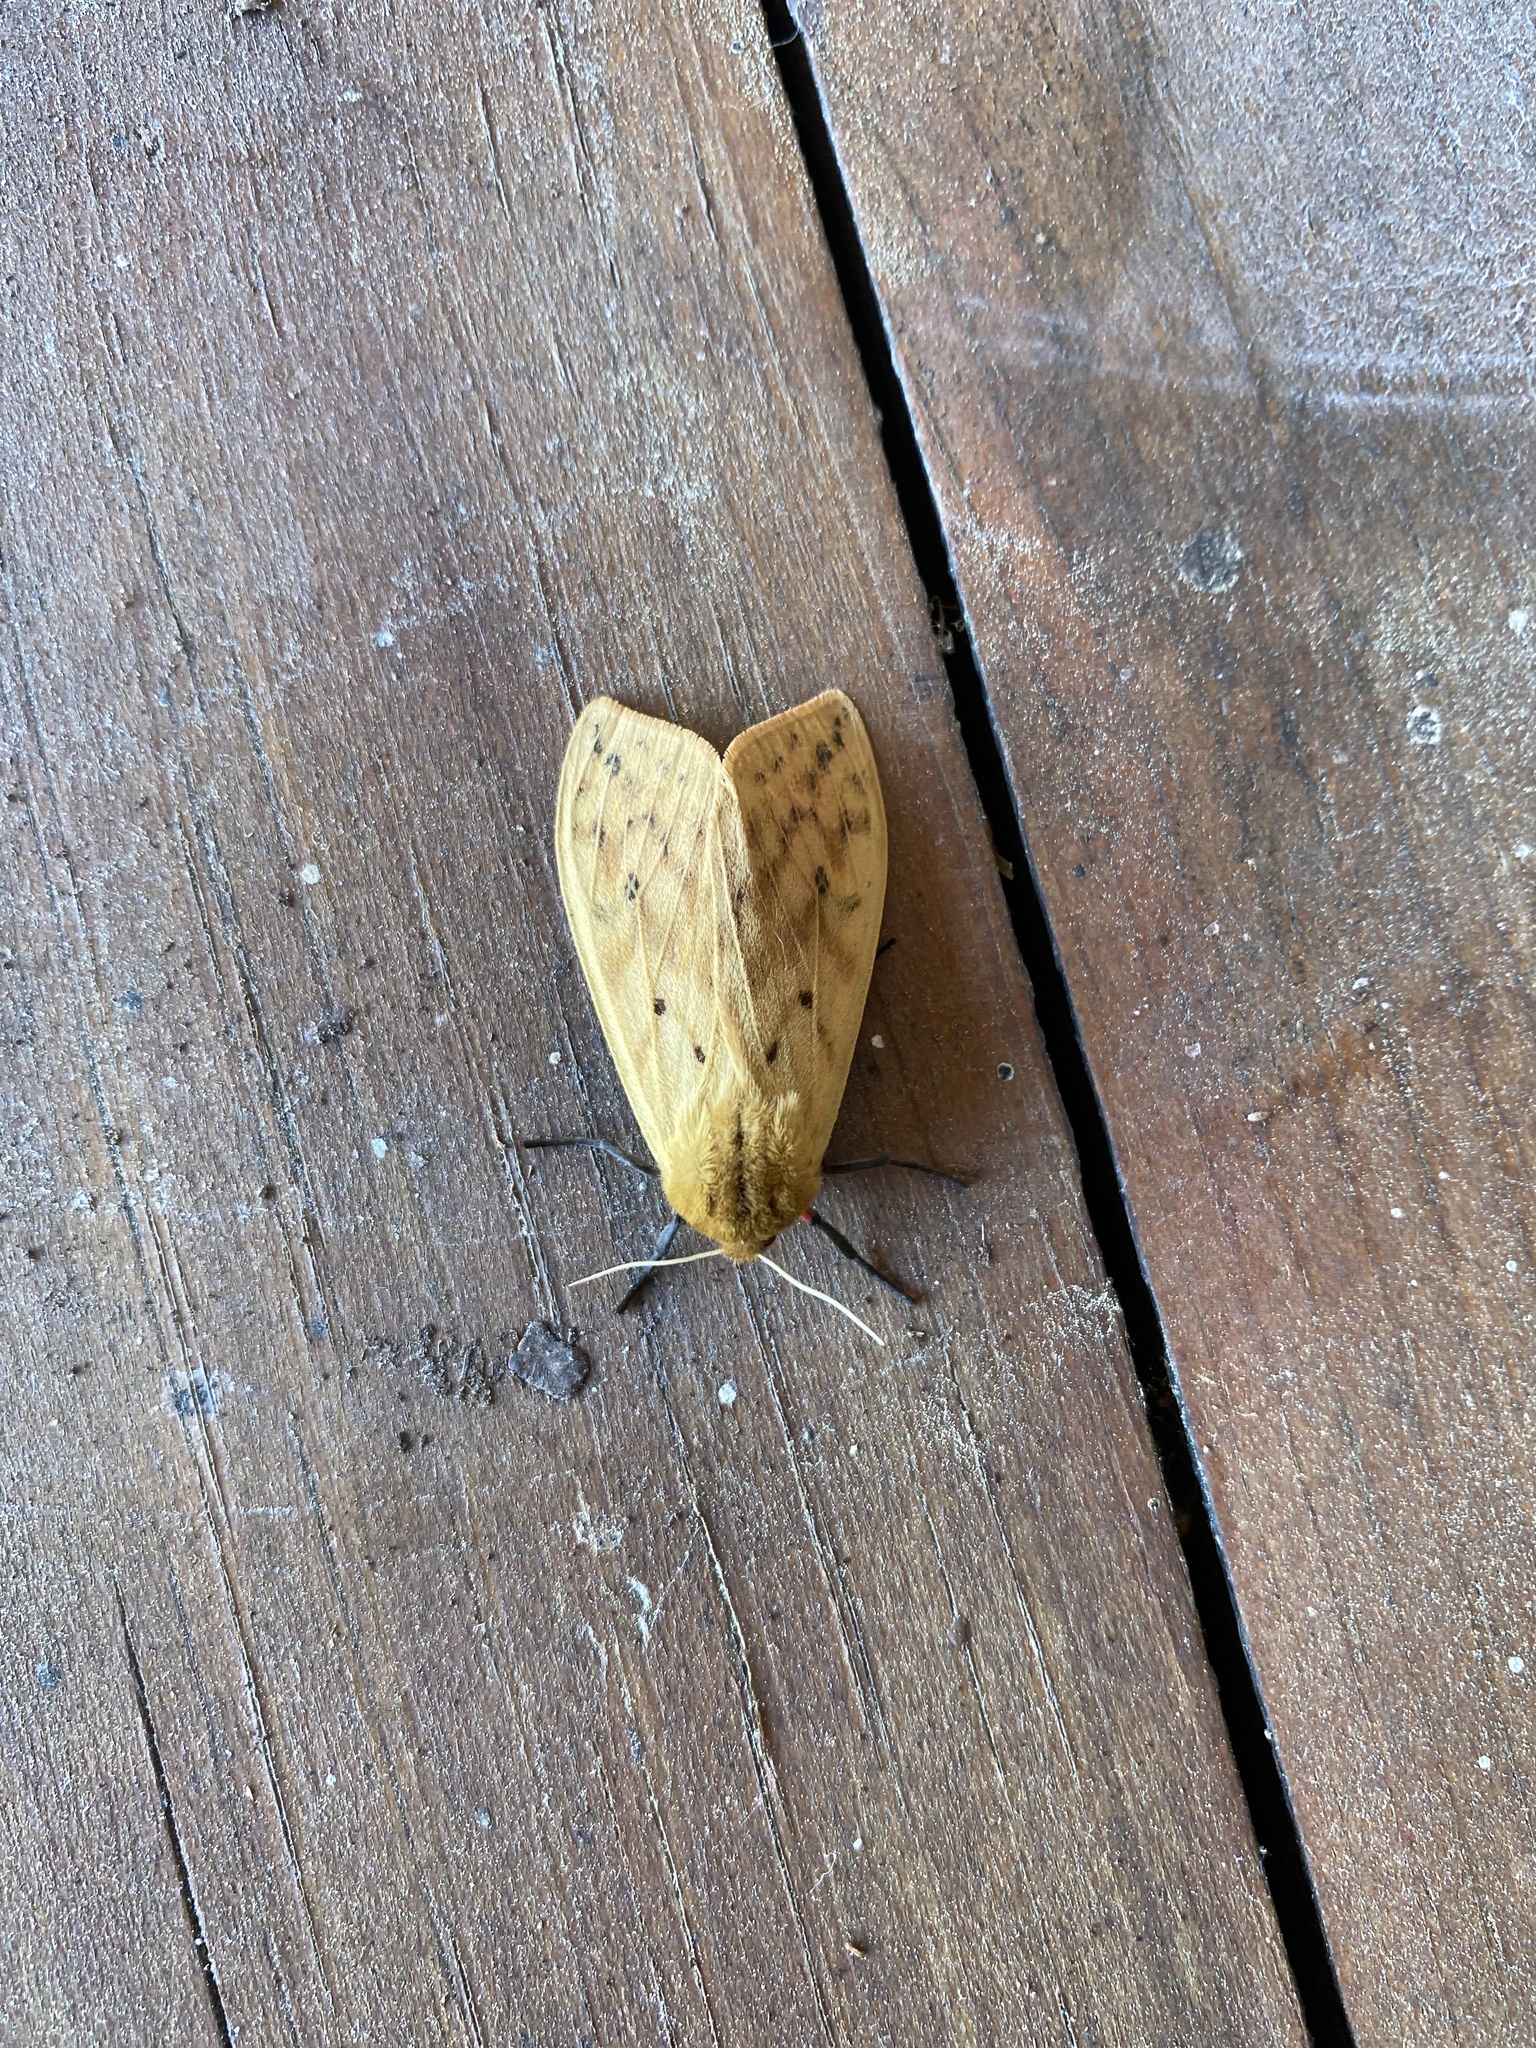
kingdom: Animalia
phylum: Arthropoda
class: Insecta
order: Lepidoptera
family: Erebidae
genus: Pyrrharctia
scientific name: Pyrrharctia isabella
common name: Isabella tiger moth
